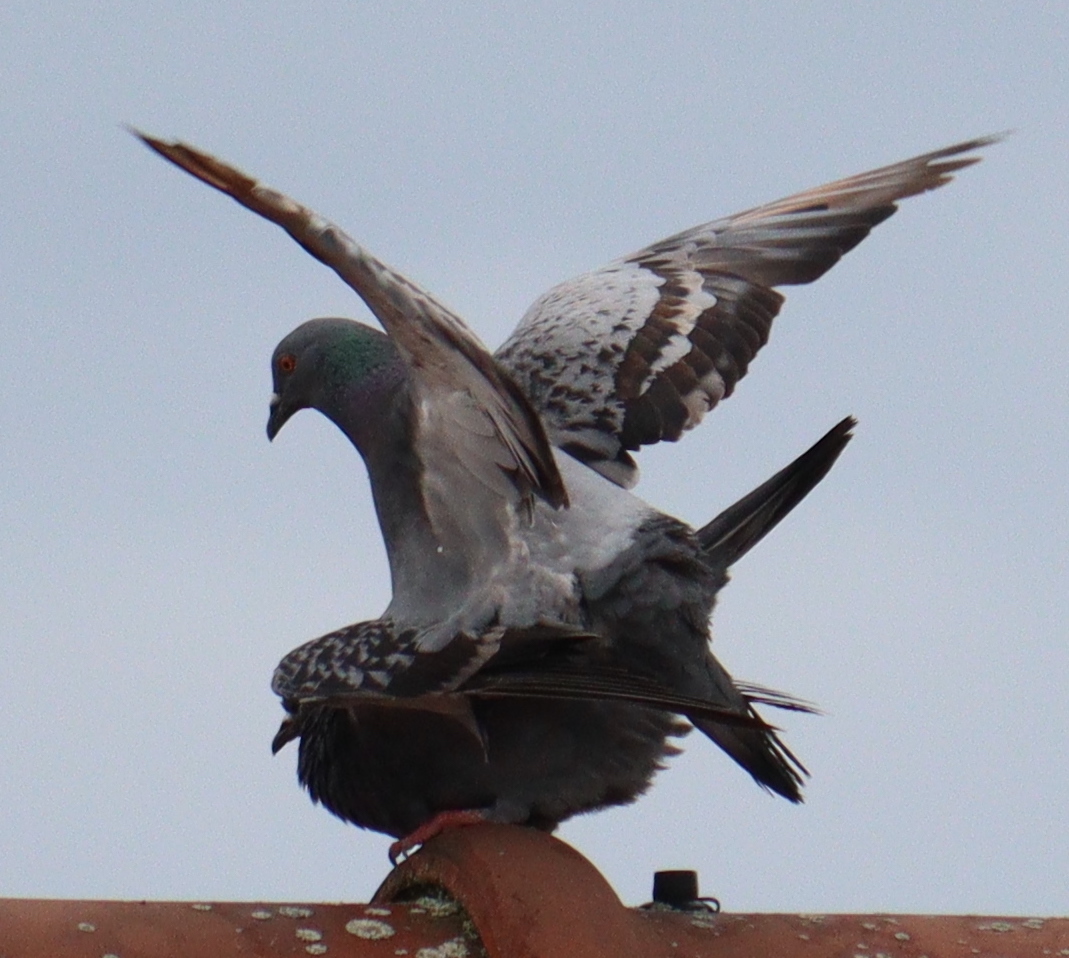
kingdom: Animalia
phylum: Chordata
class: Aves
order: Columbiformes
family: Columbidae
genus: Columba
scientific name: Columba livia
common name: Rock pigeon
